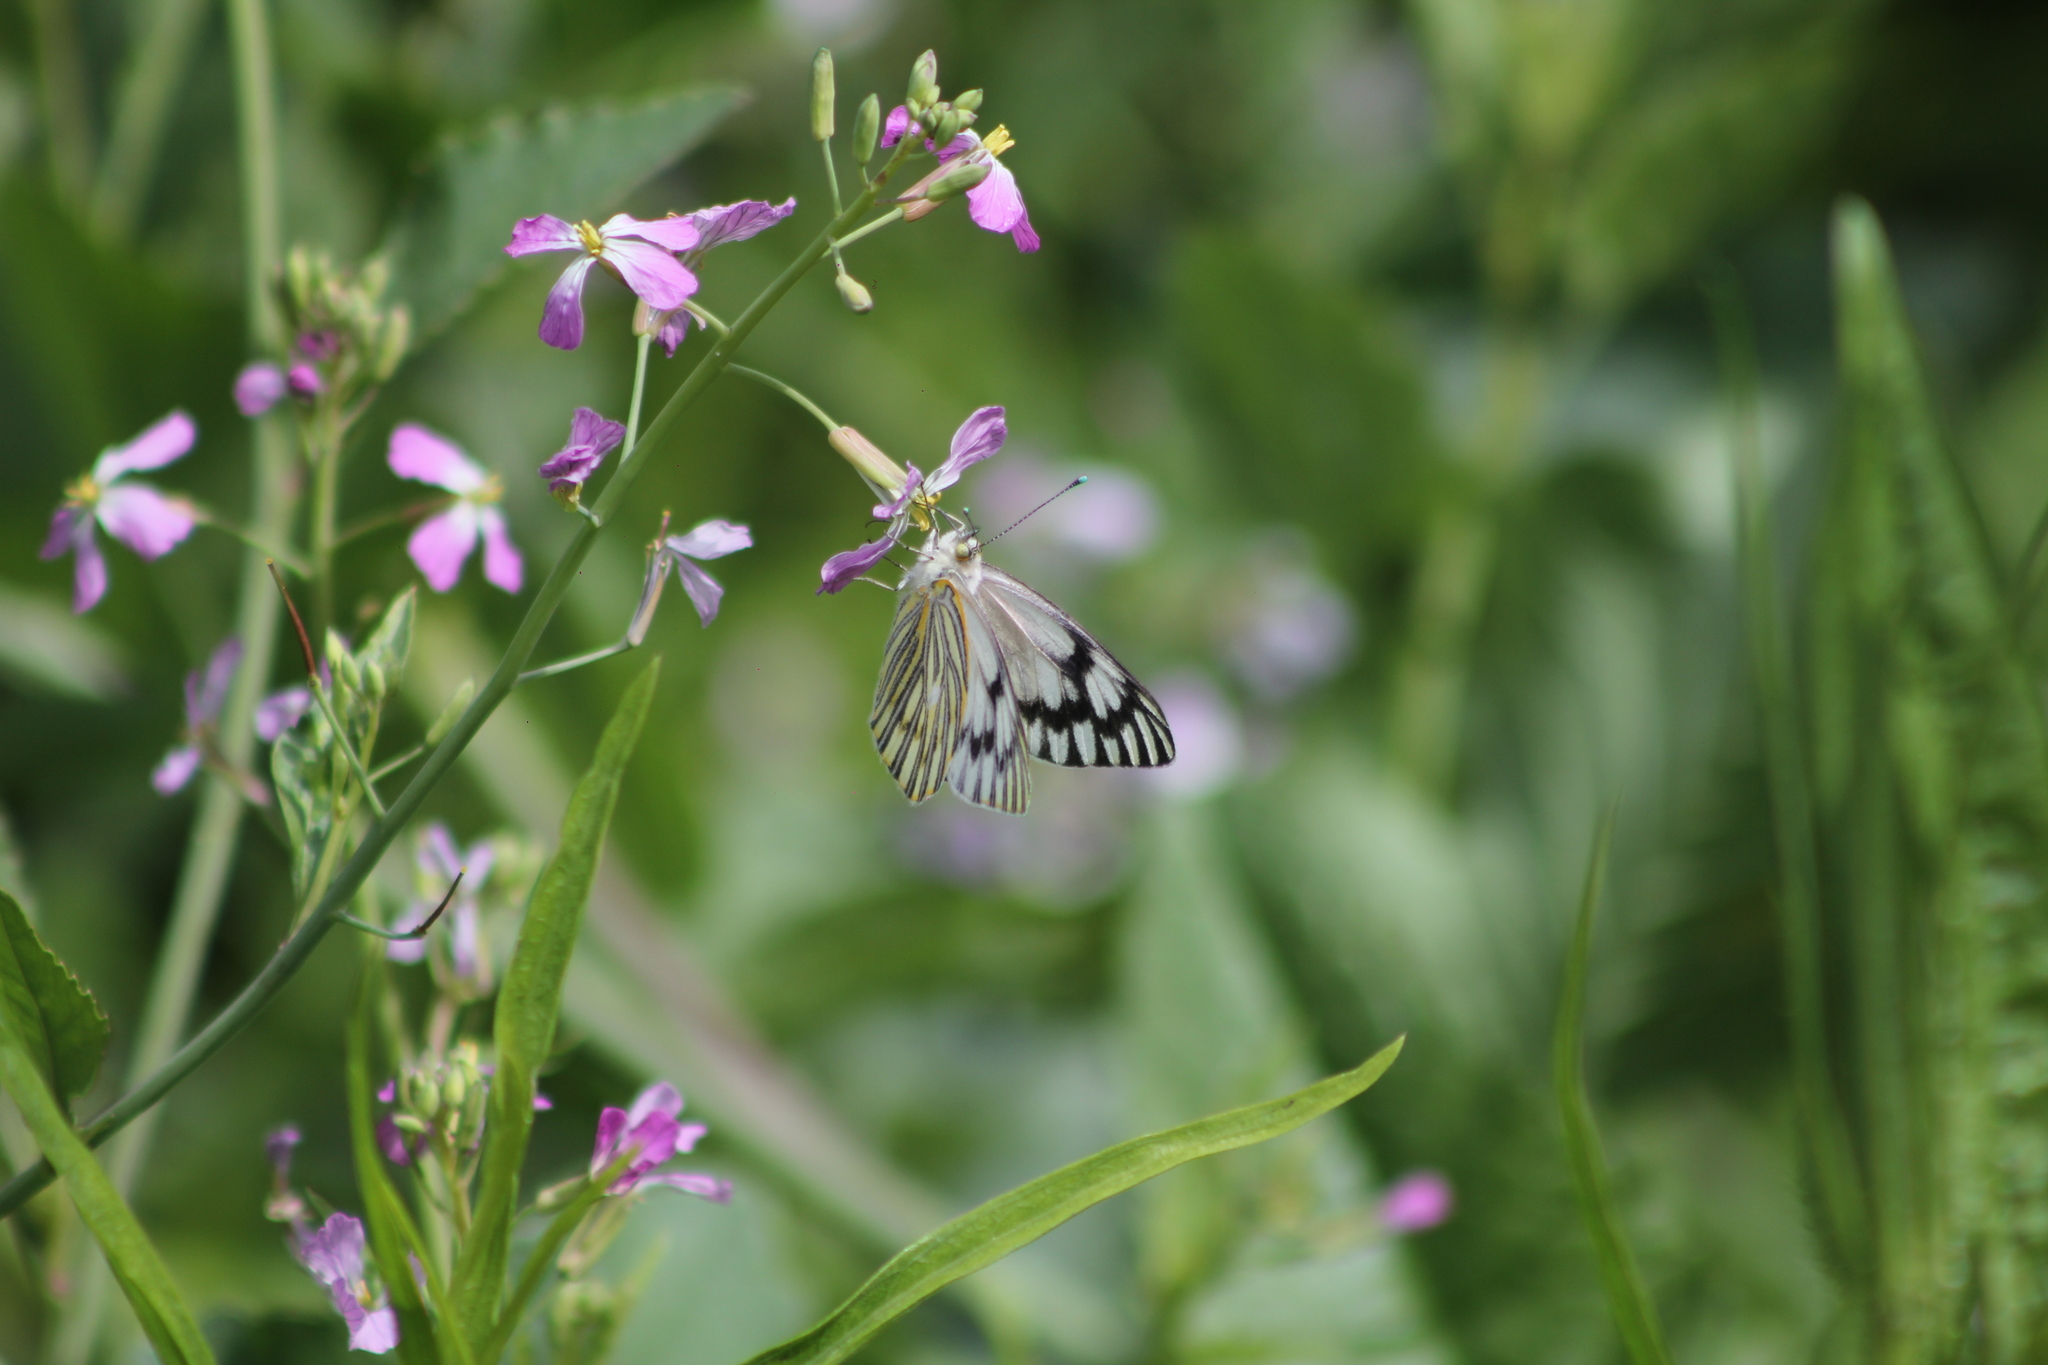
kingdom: Animalia
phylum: Arthropoda
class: Insecta
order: Lepidoptera
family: Pieridae
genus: Tatochila
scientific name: Tatochila autodice
